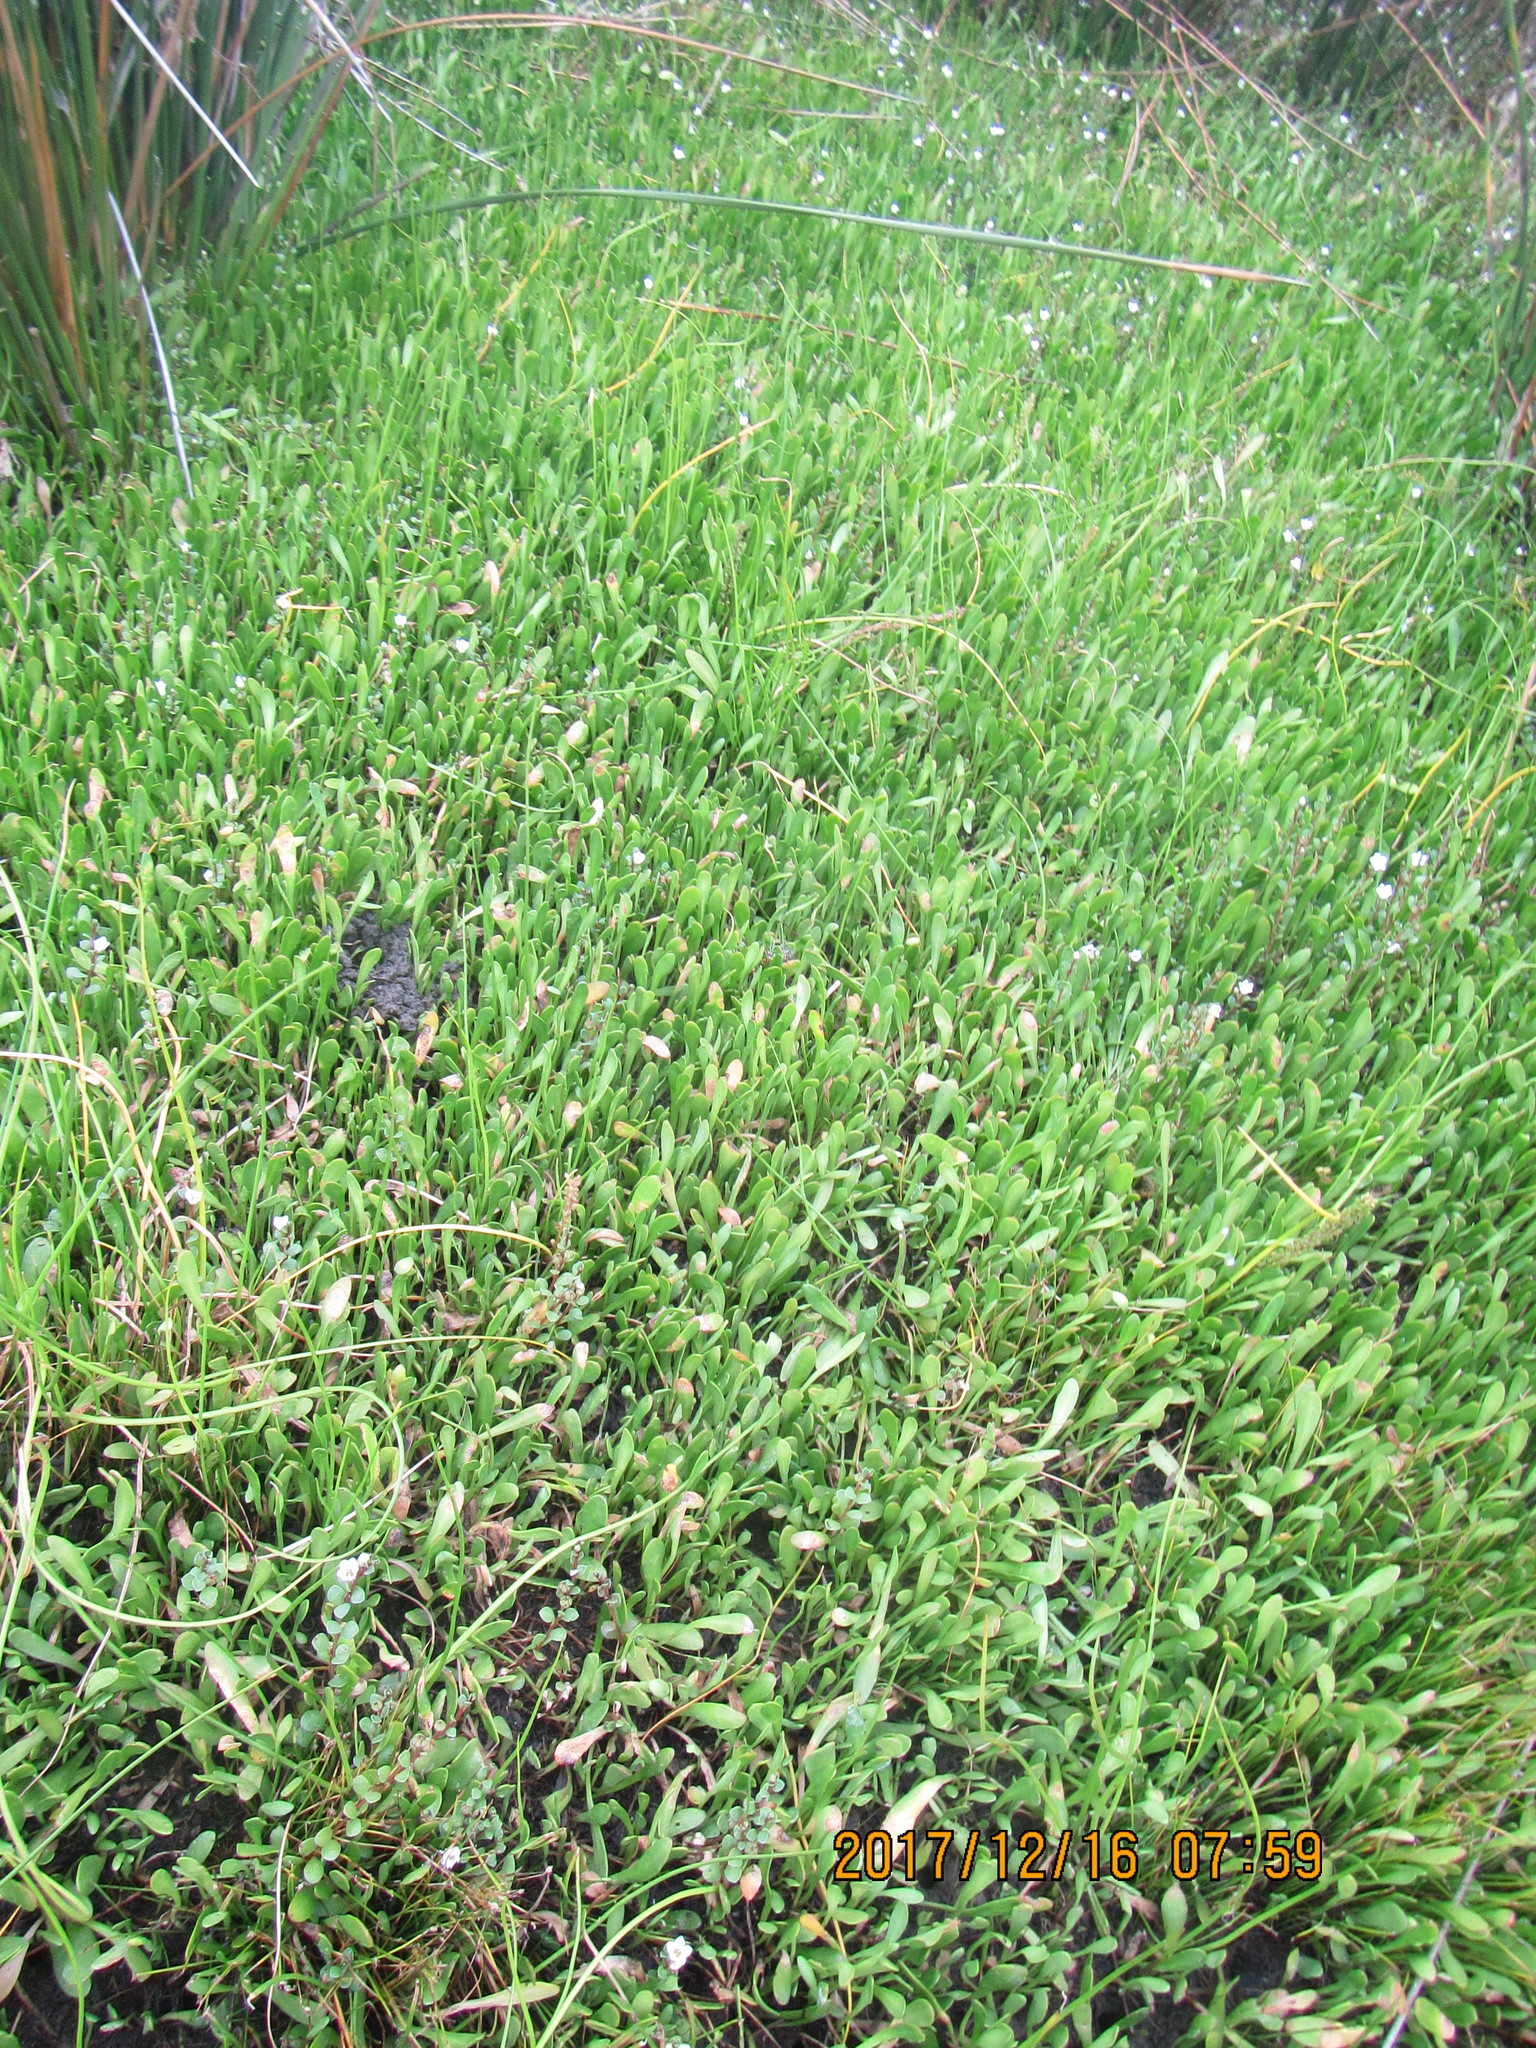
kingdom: Plantae
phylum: Tracheophyta
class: Magnoliopsida
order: Asterales
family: Goodeniaceae
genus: Goodenia
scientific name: Goodenia radicans
